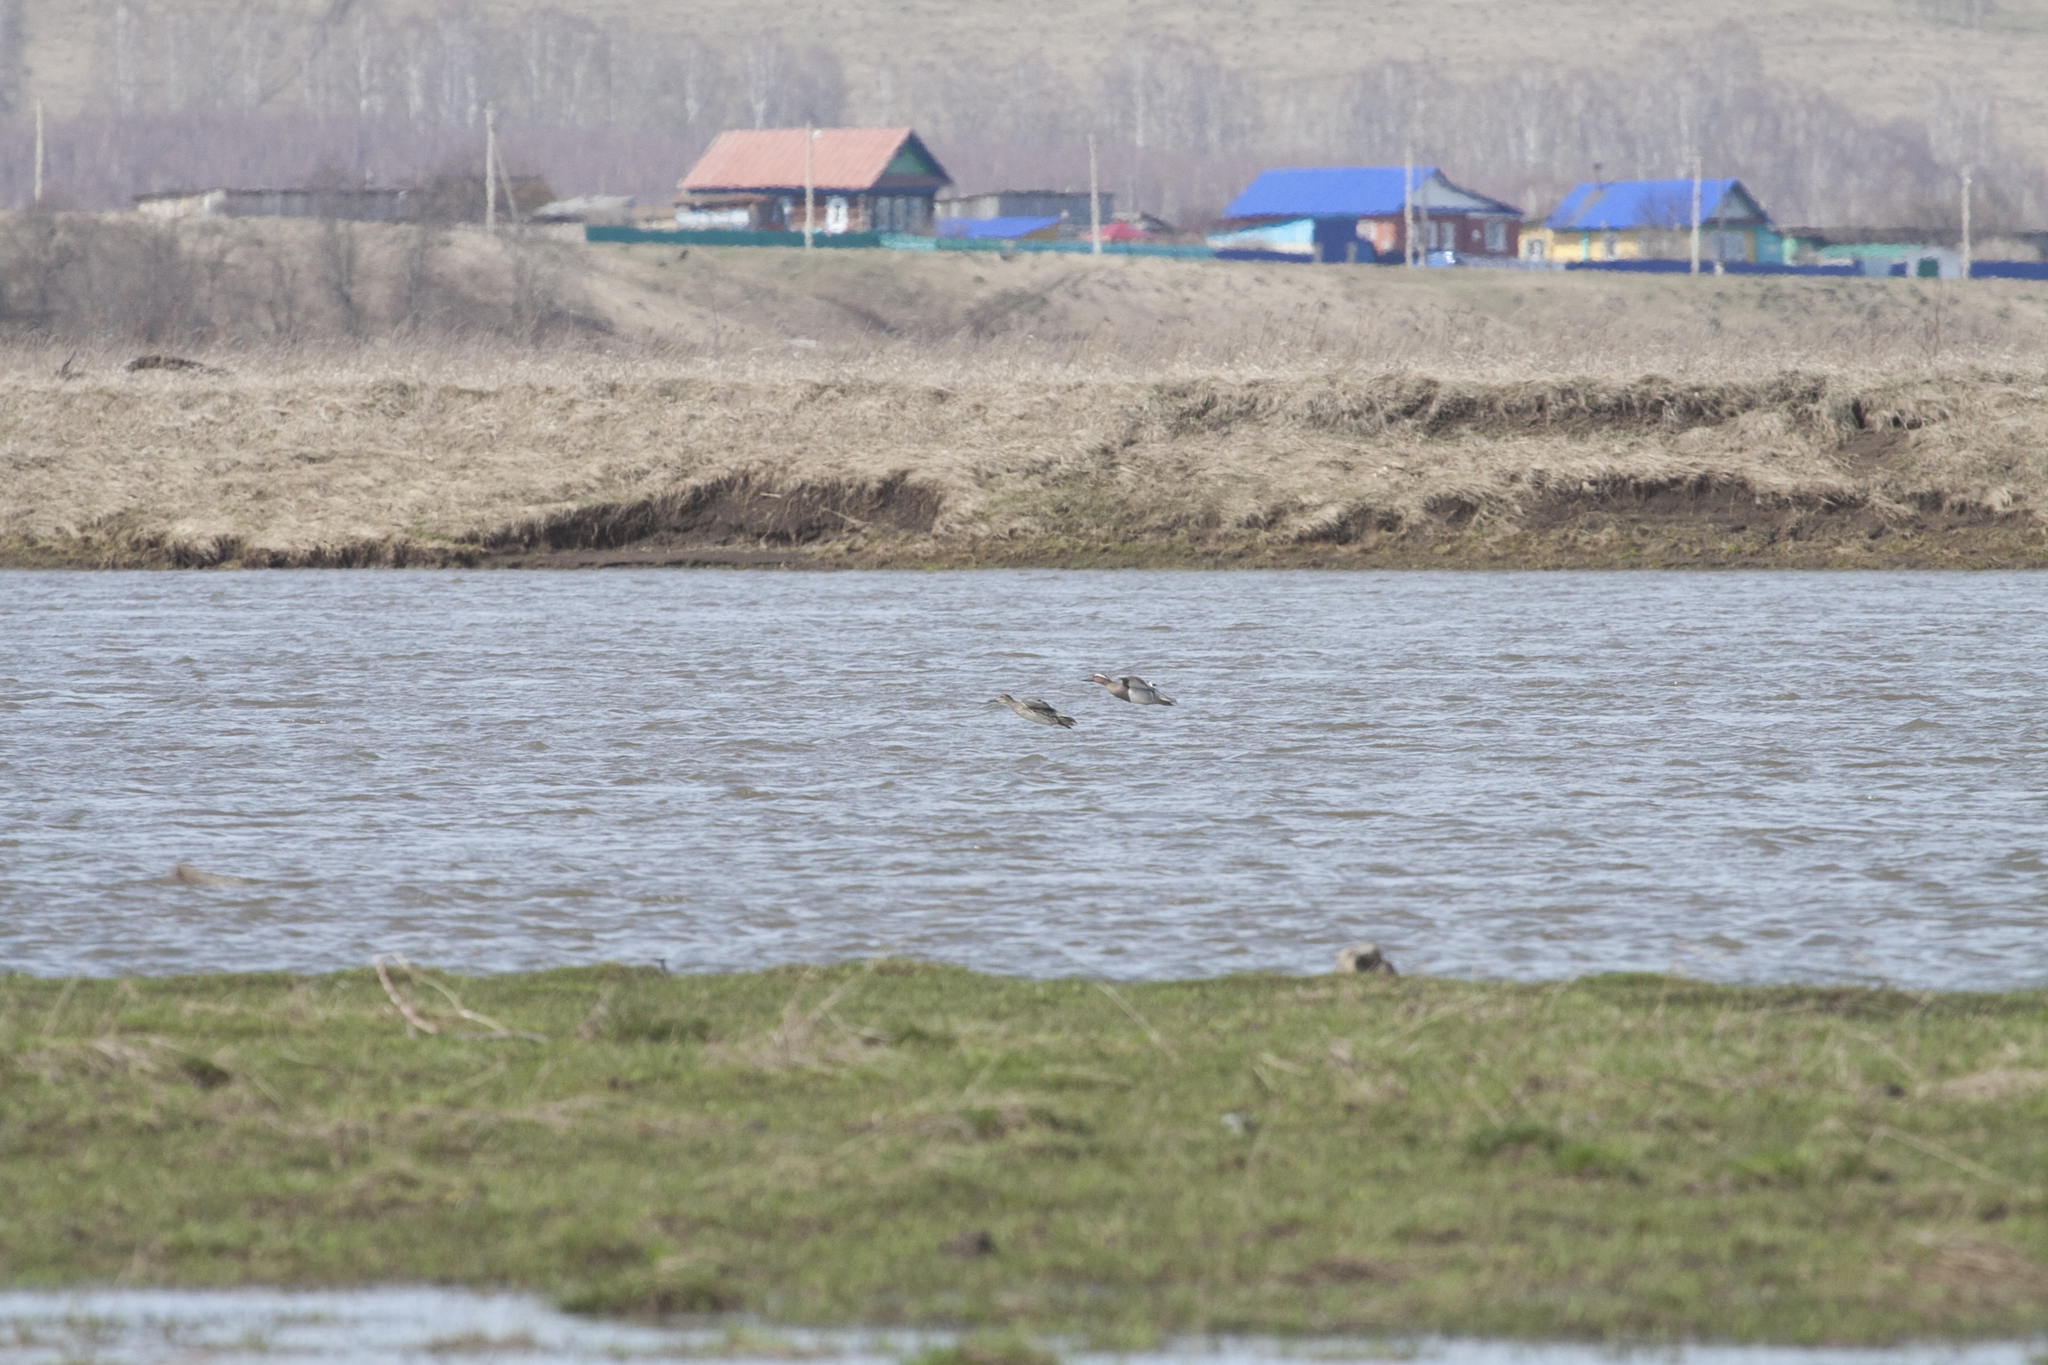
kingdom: Animalia
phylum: Chordata
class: Aves
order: Anseriformes
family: Anatidae
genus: Spatula
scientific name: Spatula querquedula
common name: Garganey
